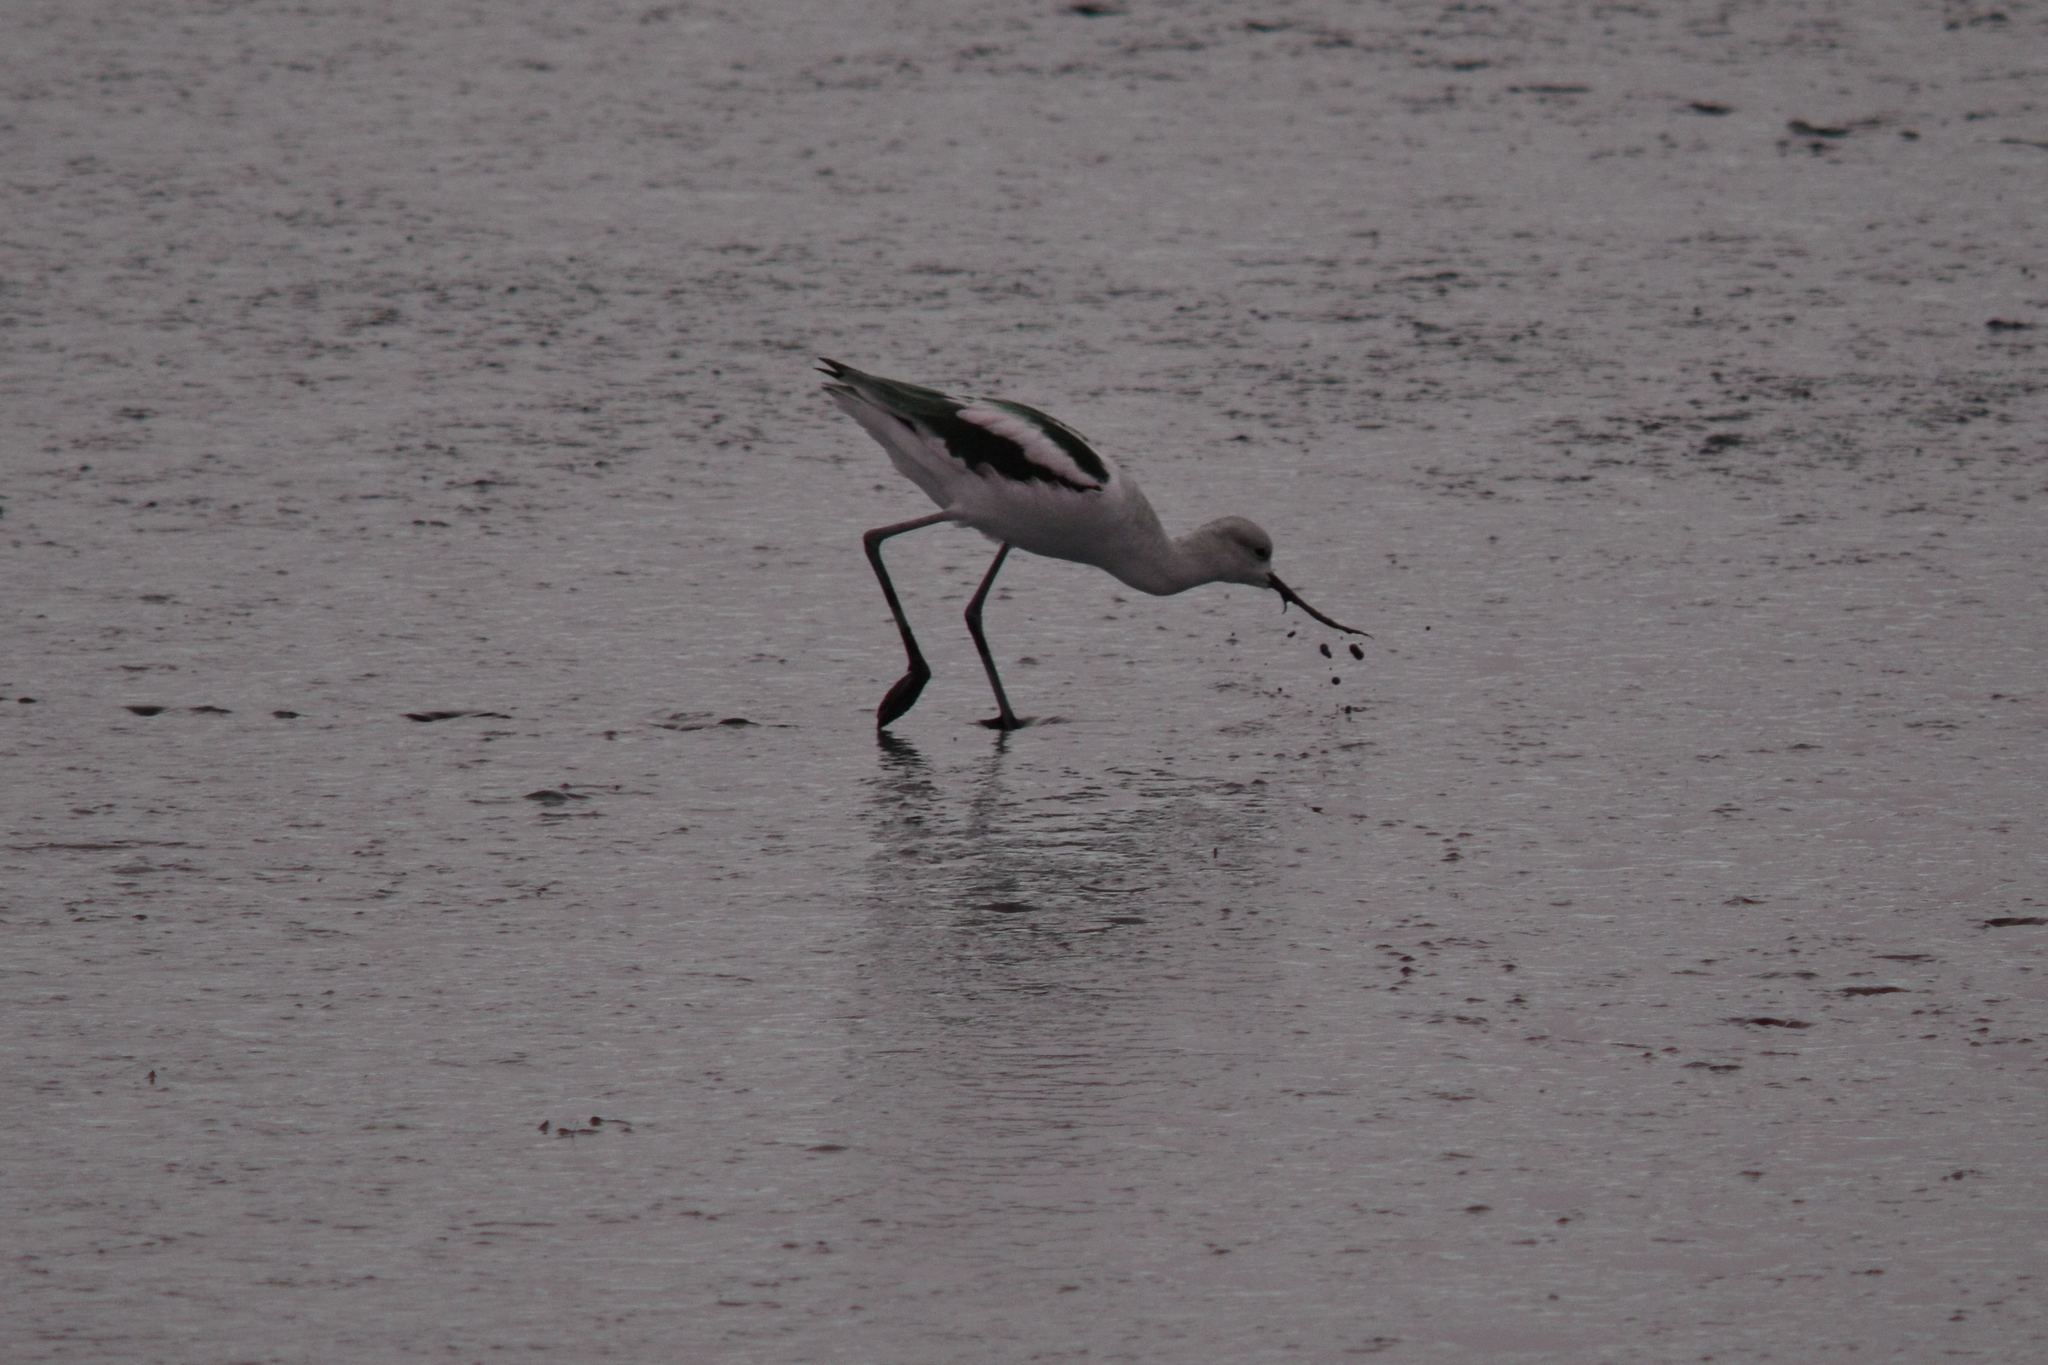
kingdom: Animalia
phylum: Chordata
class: Aves
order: Charadriiformes
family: Recurvirostridae
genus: Recurvirostra
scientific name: Recurvirostra americana
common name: American avocet
